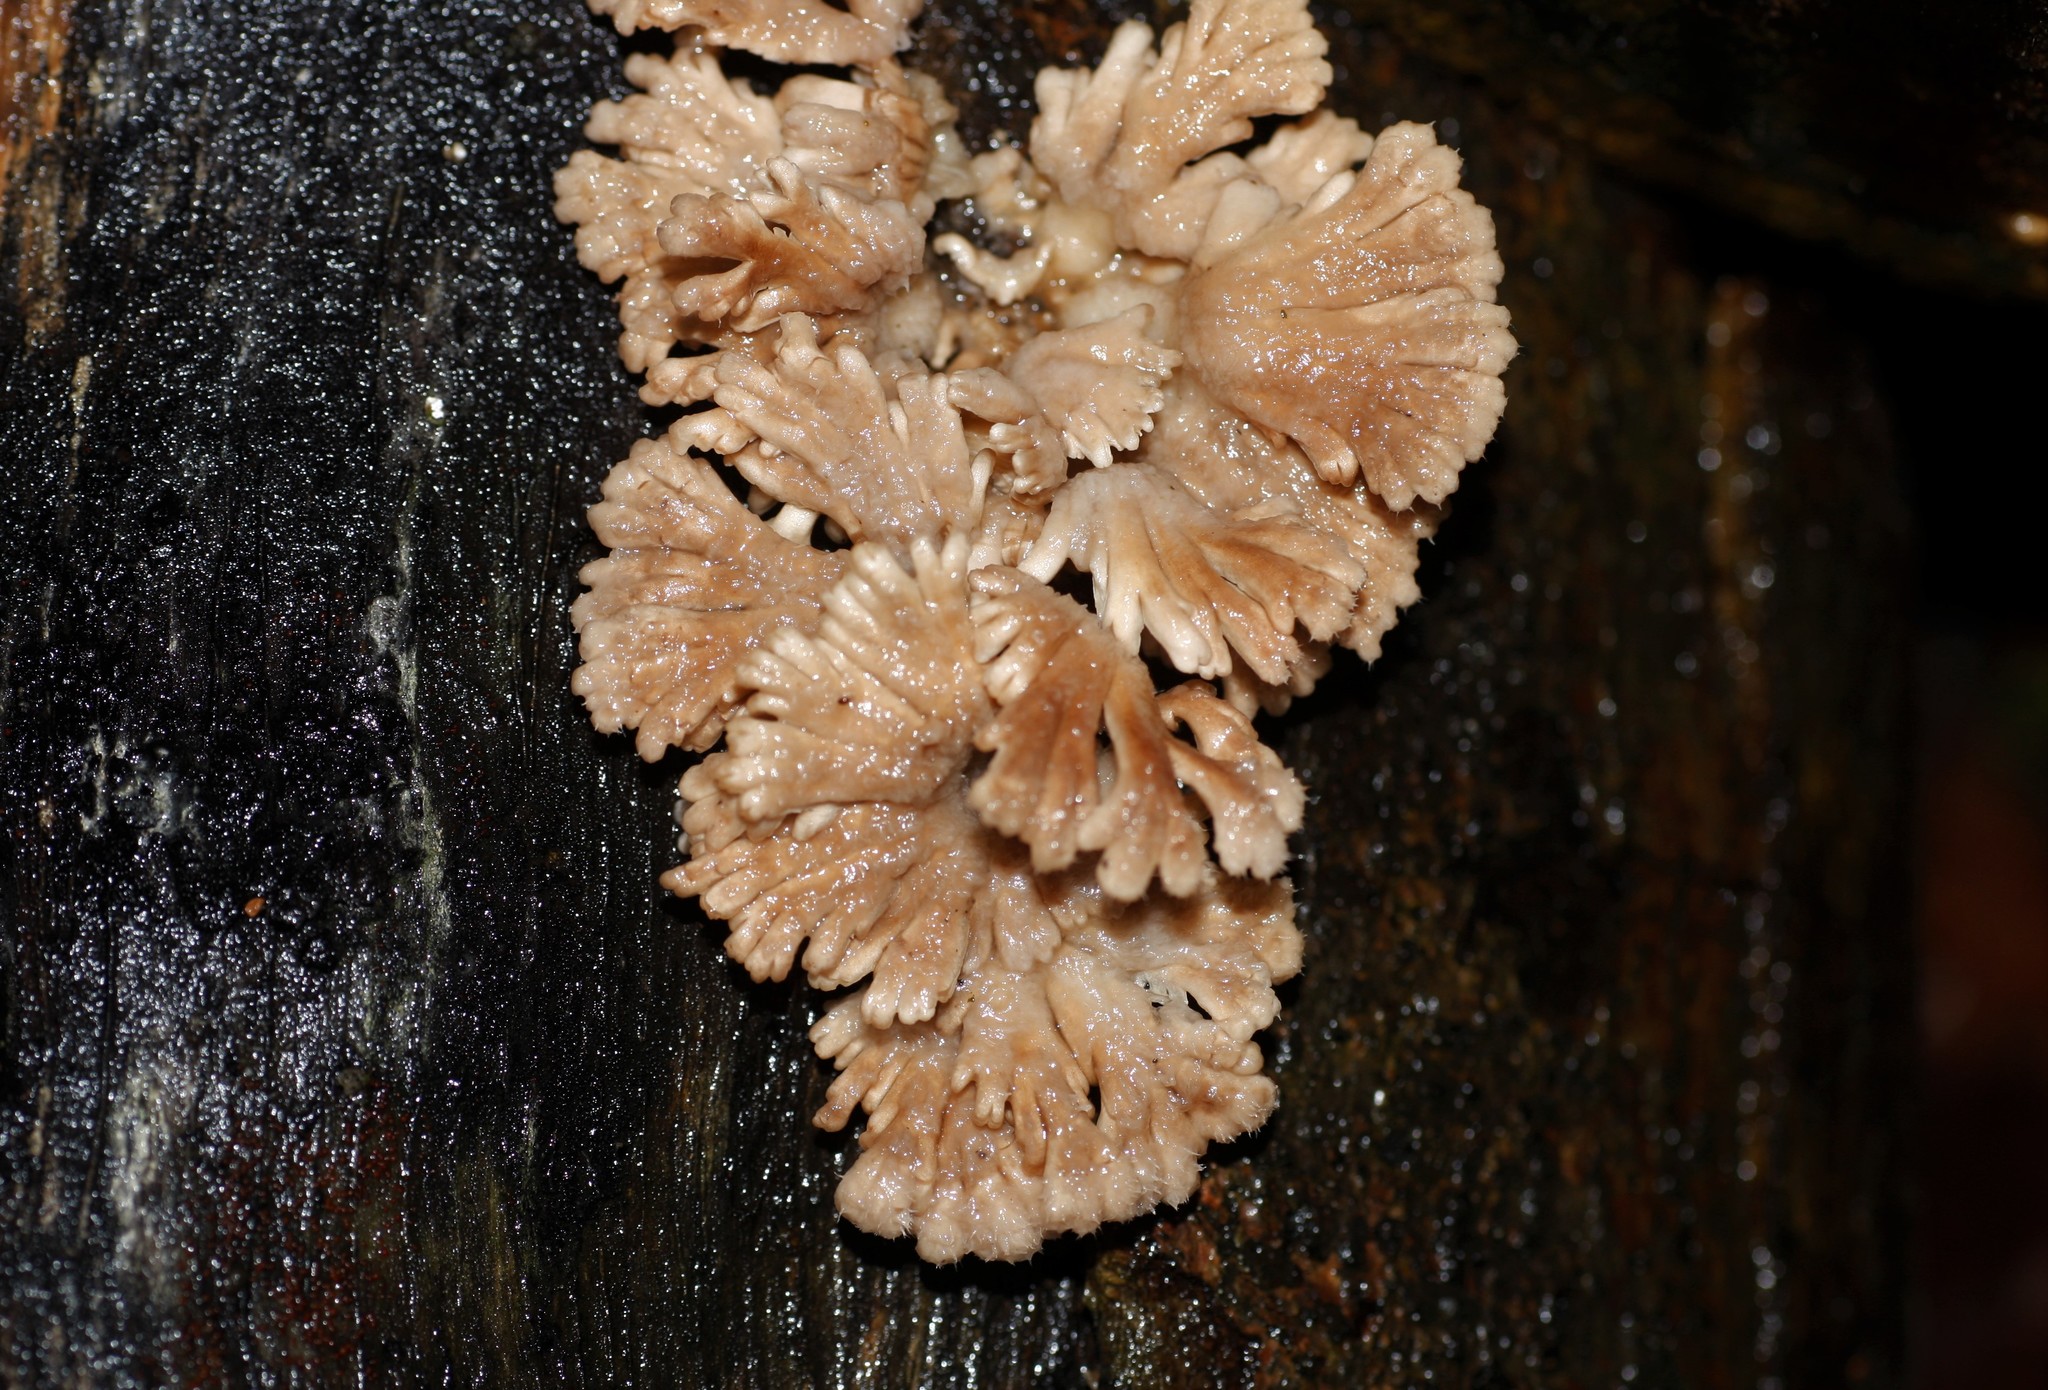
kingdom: Fungi
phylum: Basidiomycota
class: Agaricomycetes
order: Agaricales
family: Schizophyllaceae
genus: Schizophyllum
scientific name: Schizophyllum commune
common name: Common porecrust
